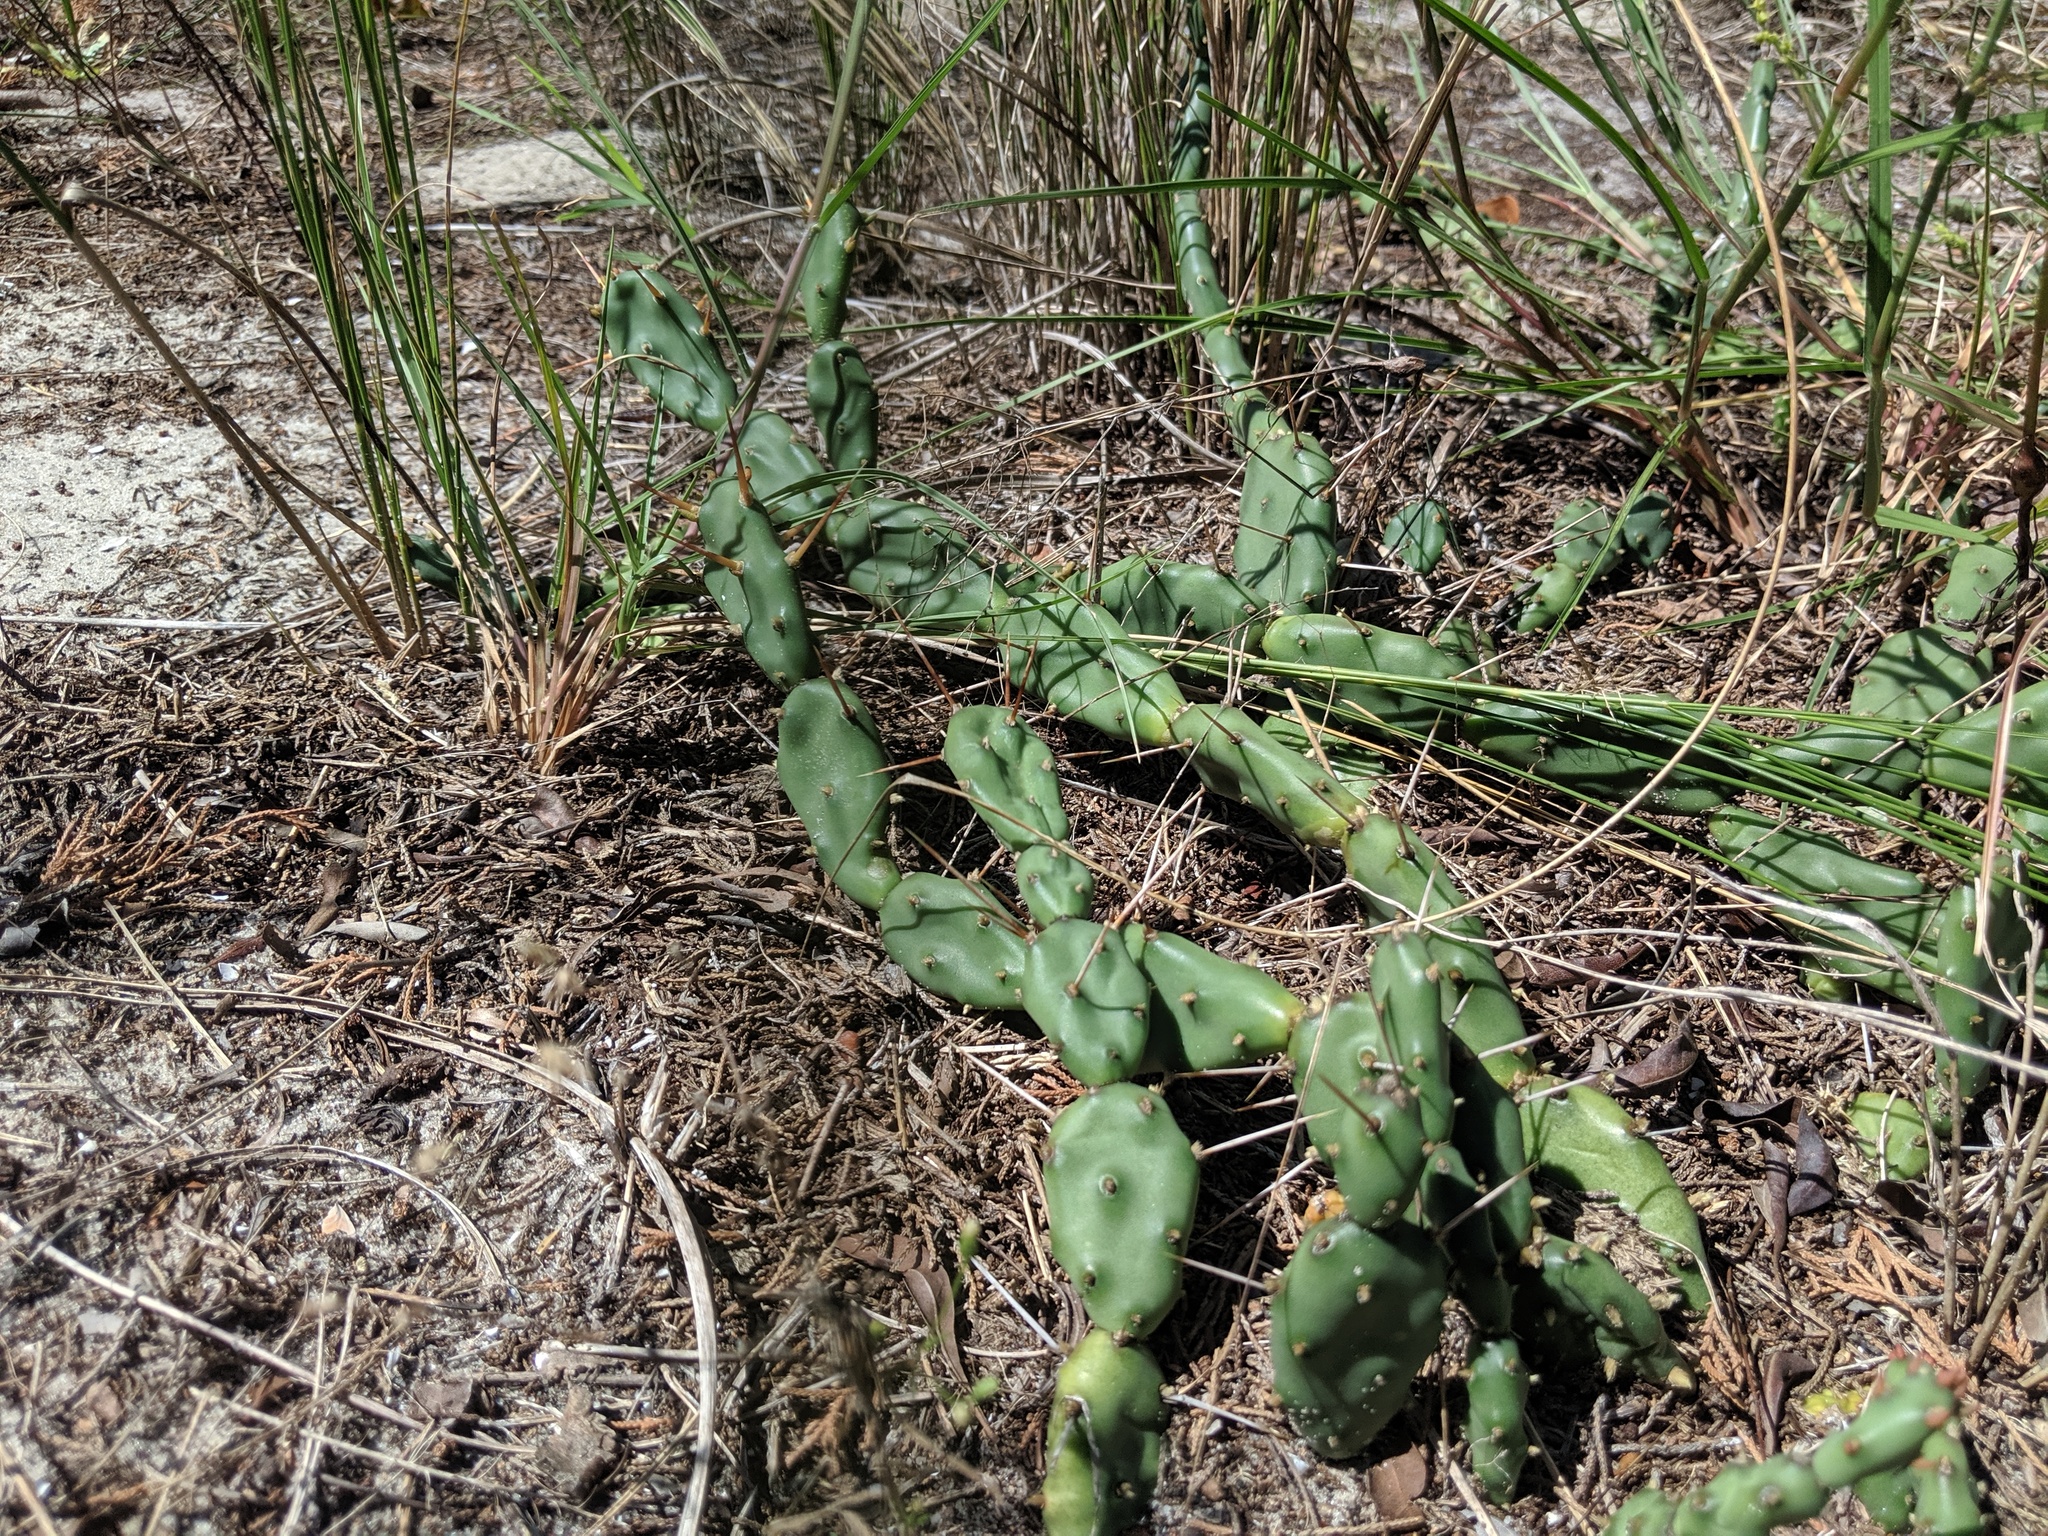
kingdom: Plantae
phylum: Tracheophyta
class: Magnoliopsida
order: Caryophyllales
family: Cactaceae
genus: Opuntia
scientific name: Opuntia drummondii
